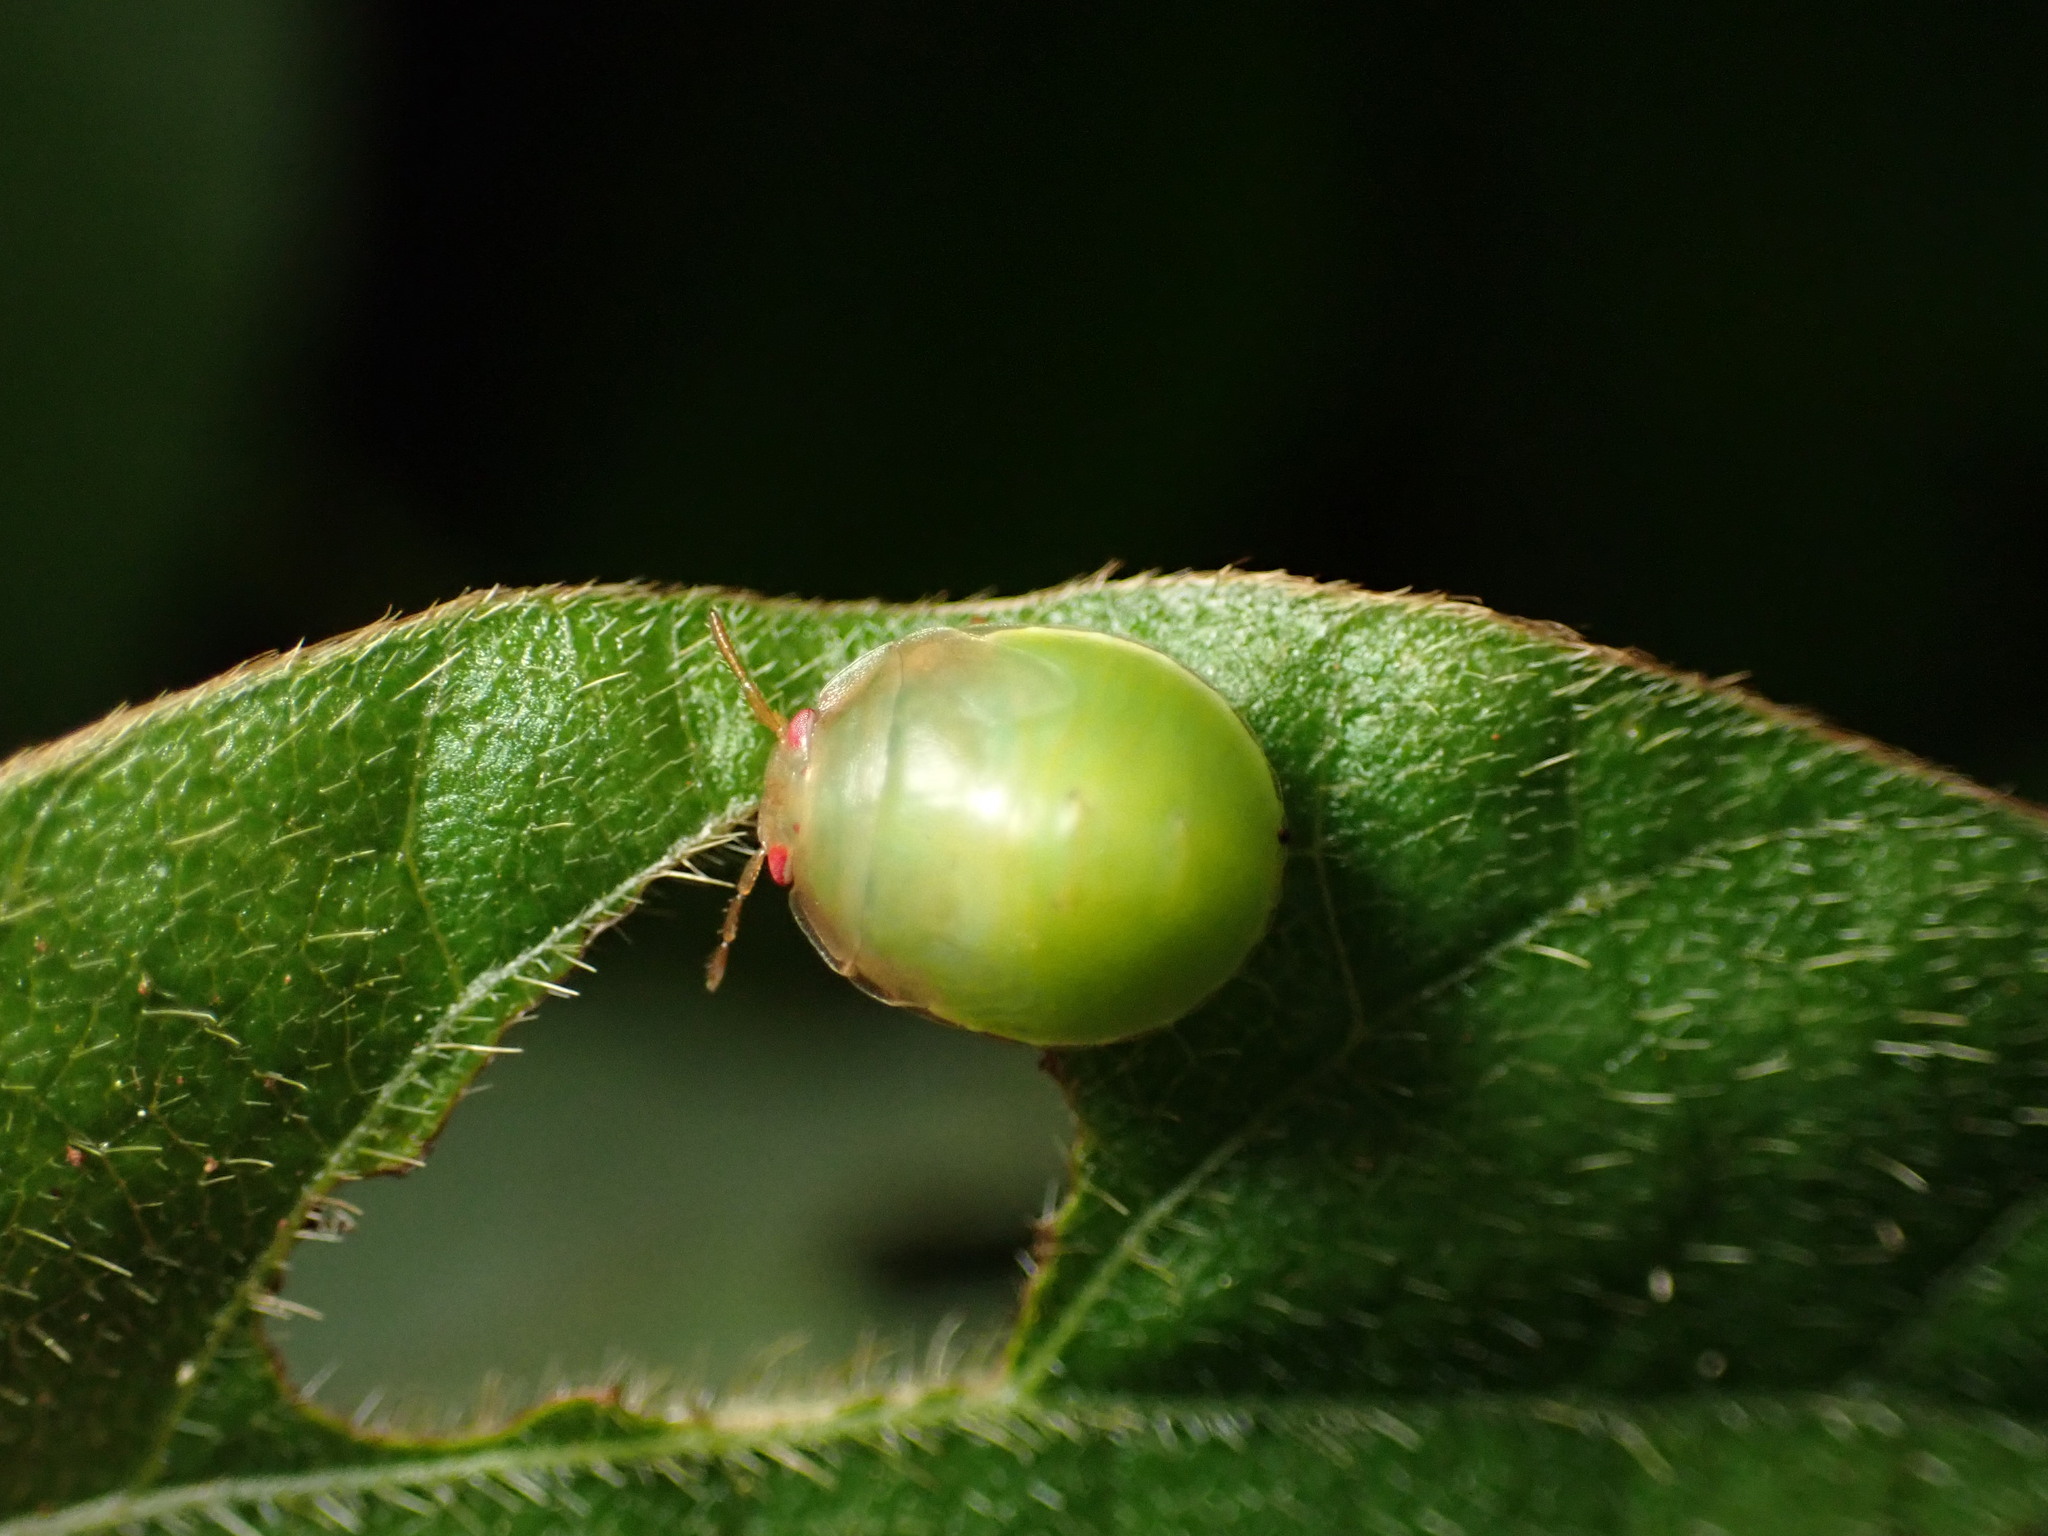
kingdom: Animalia
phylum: Arthropoda
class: Insecta
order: Hemiptera
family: Plataspidae
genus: Coptosoma
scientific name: Coptosoma
